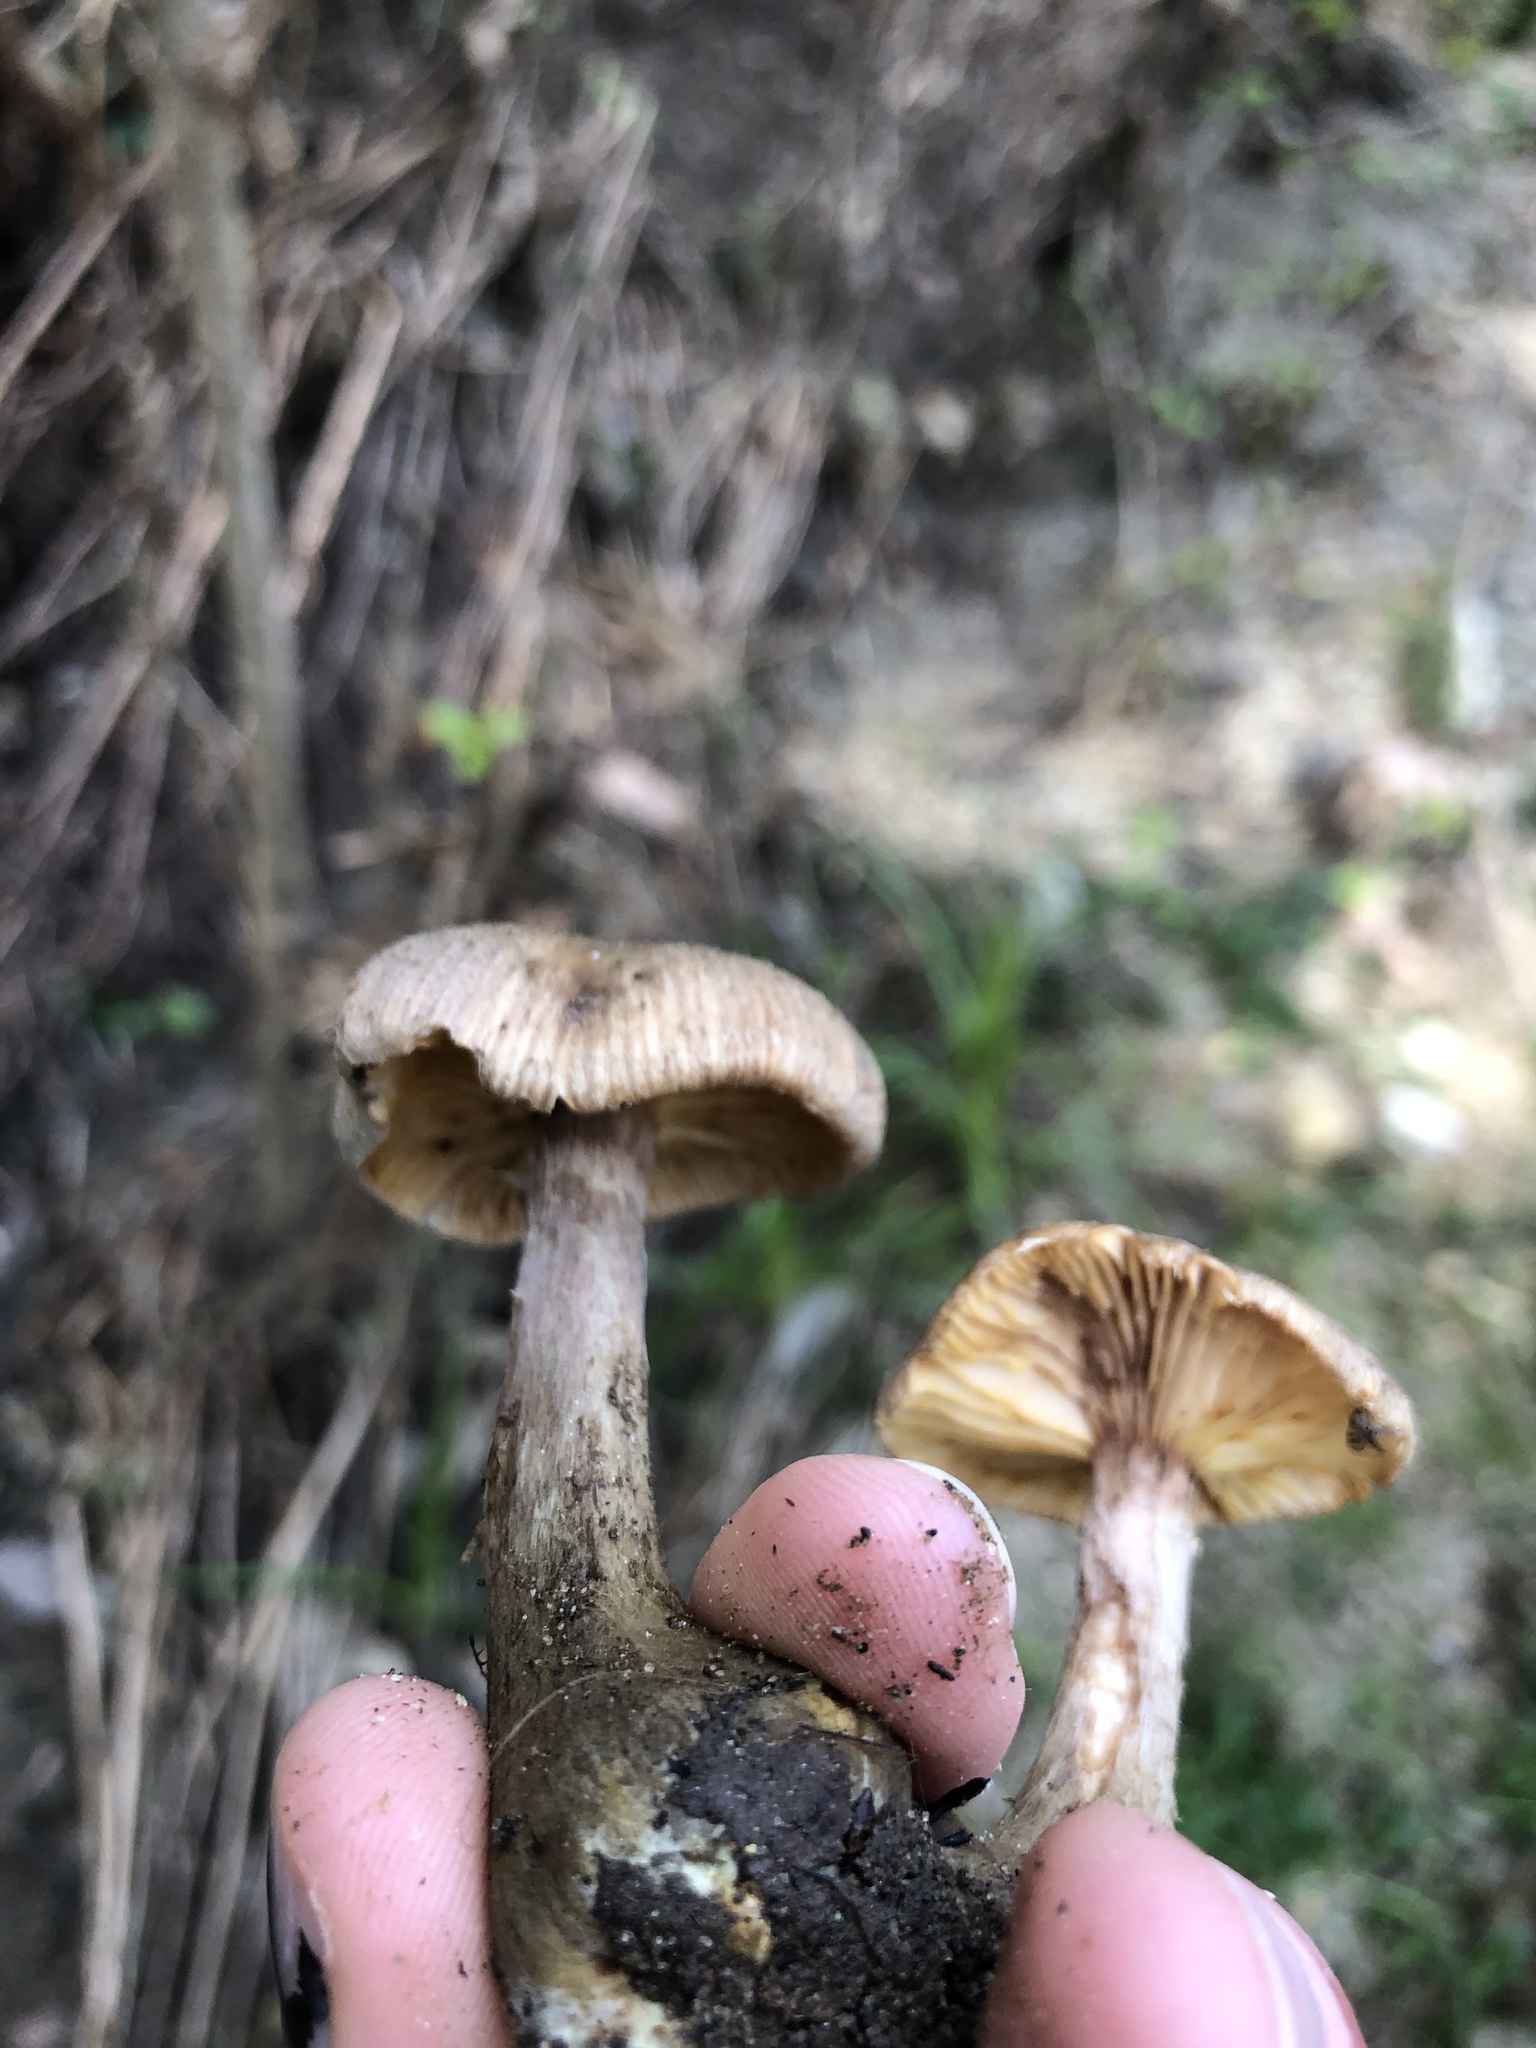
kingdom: Fungi
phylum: Basidiomycota
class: Agaricomycetes
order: Agaricales
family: Physalacriaceae
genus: Armillaria
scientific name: Armillaria sinapina
